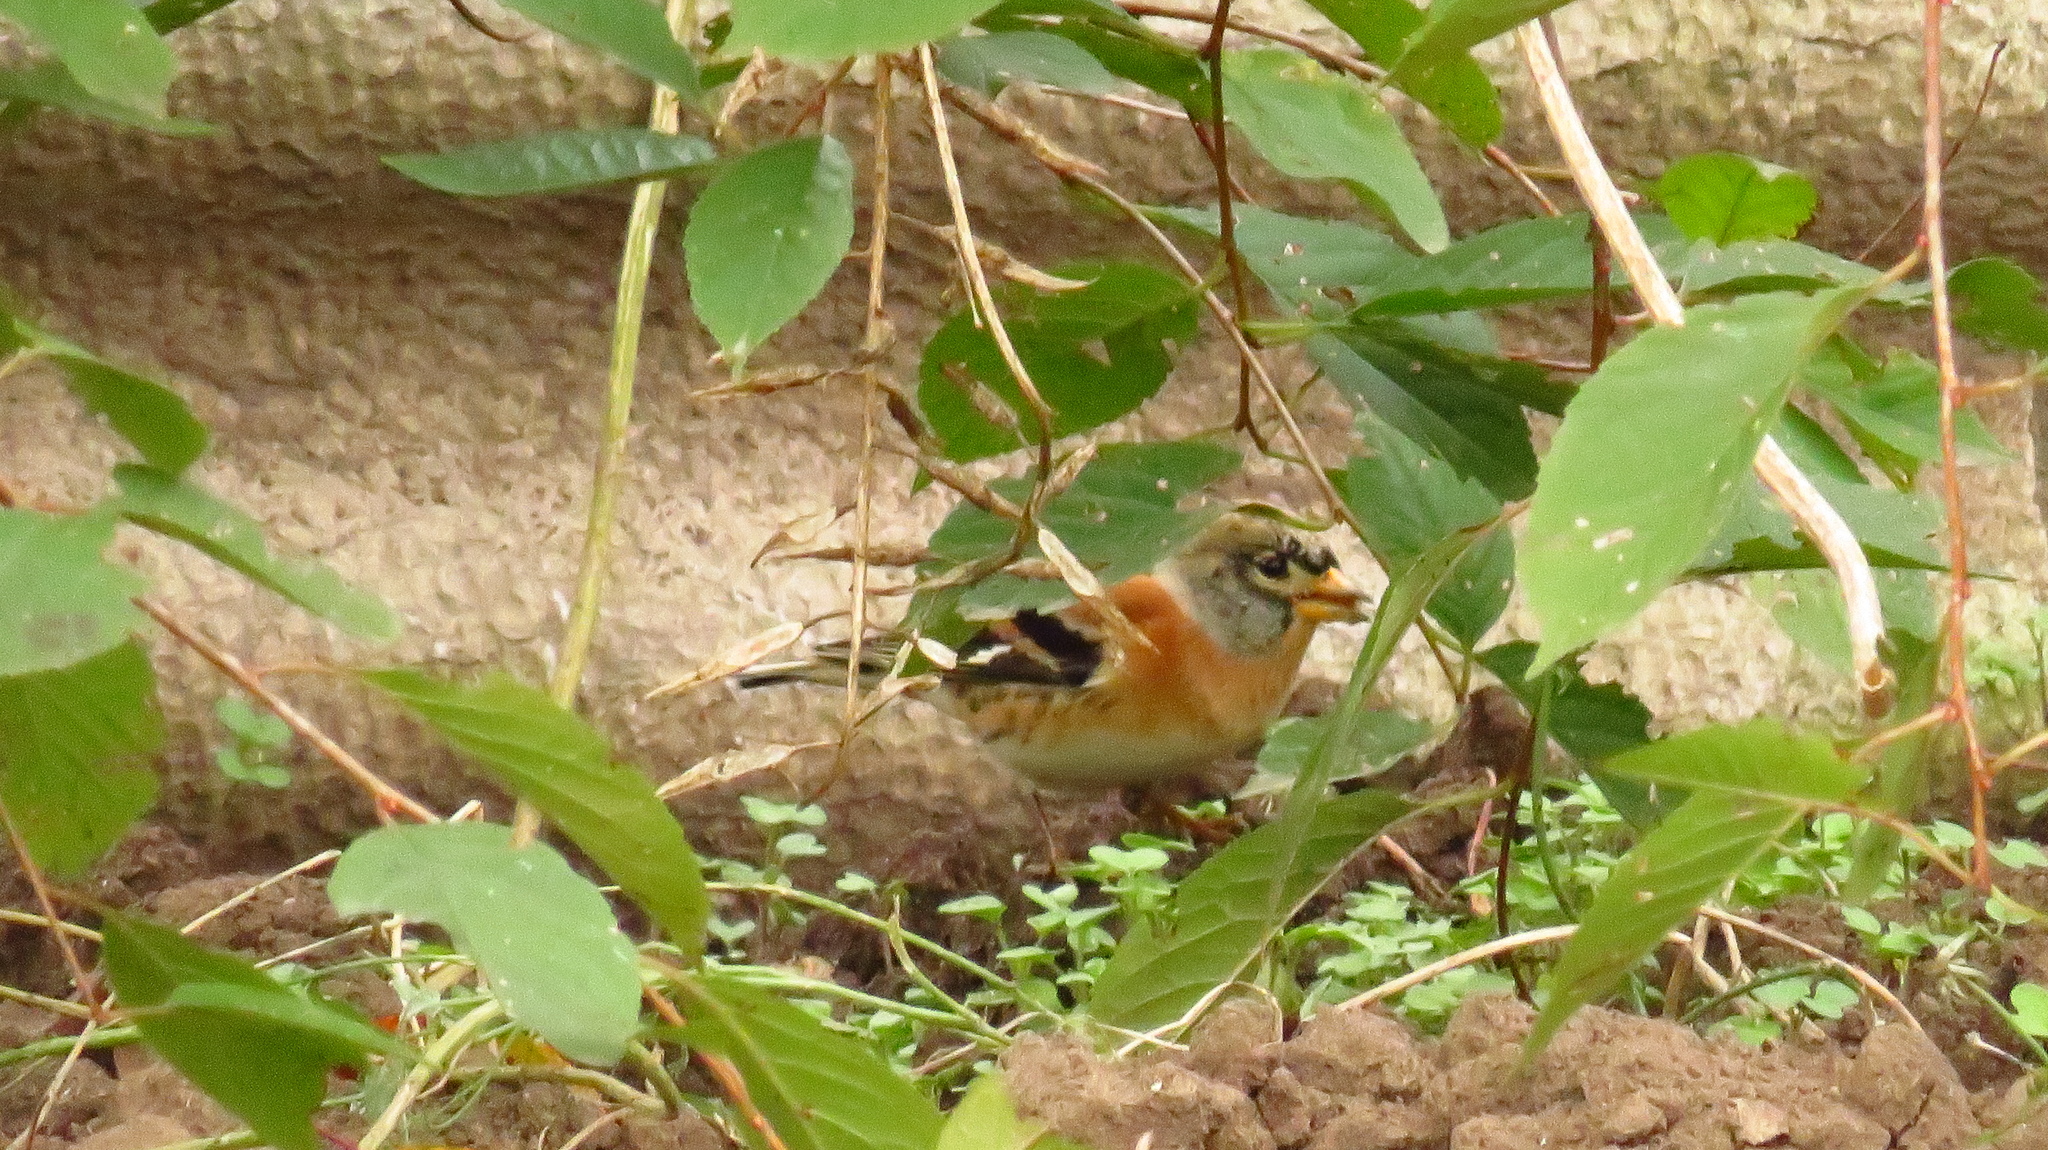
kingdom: Animalia
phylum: Chordata
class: Aves
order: Passeriformes
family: Fringillidae
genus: Fringilla
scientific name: Fringilla montifringilla
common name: Brambling
